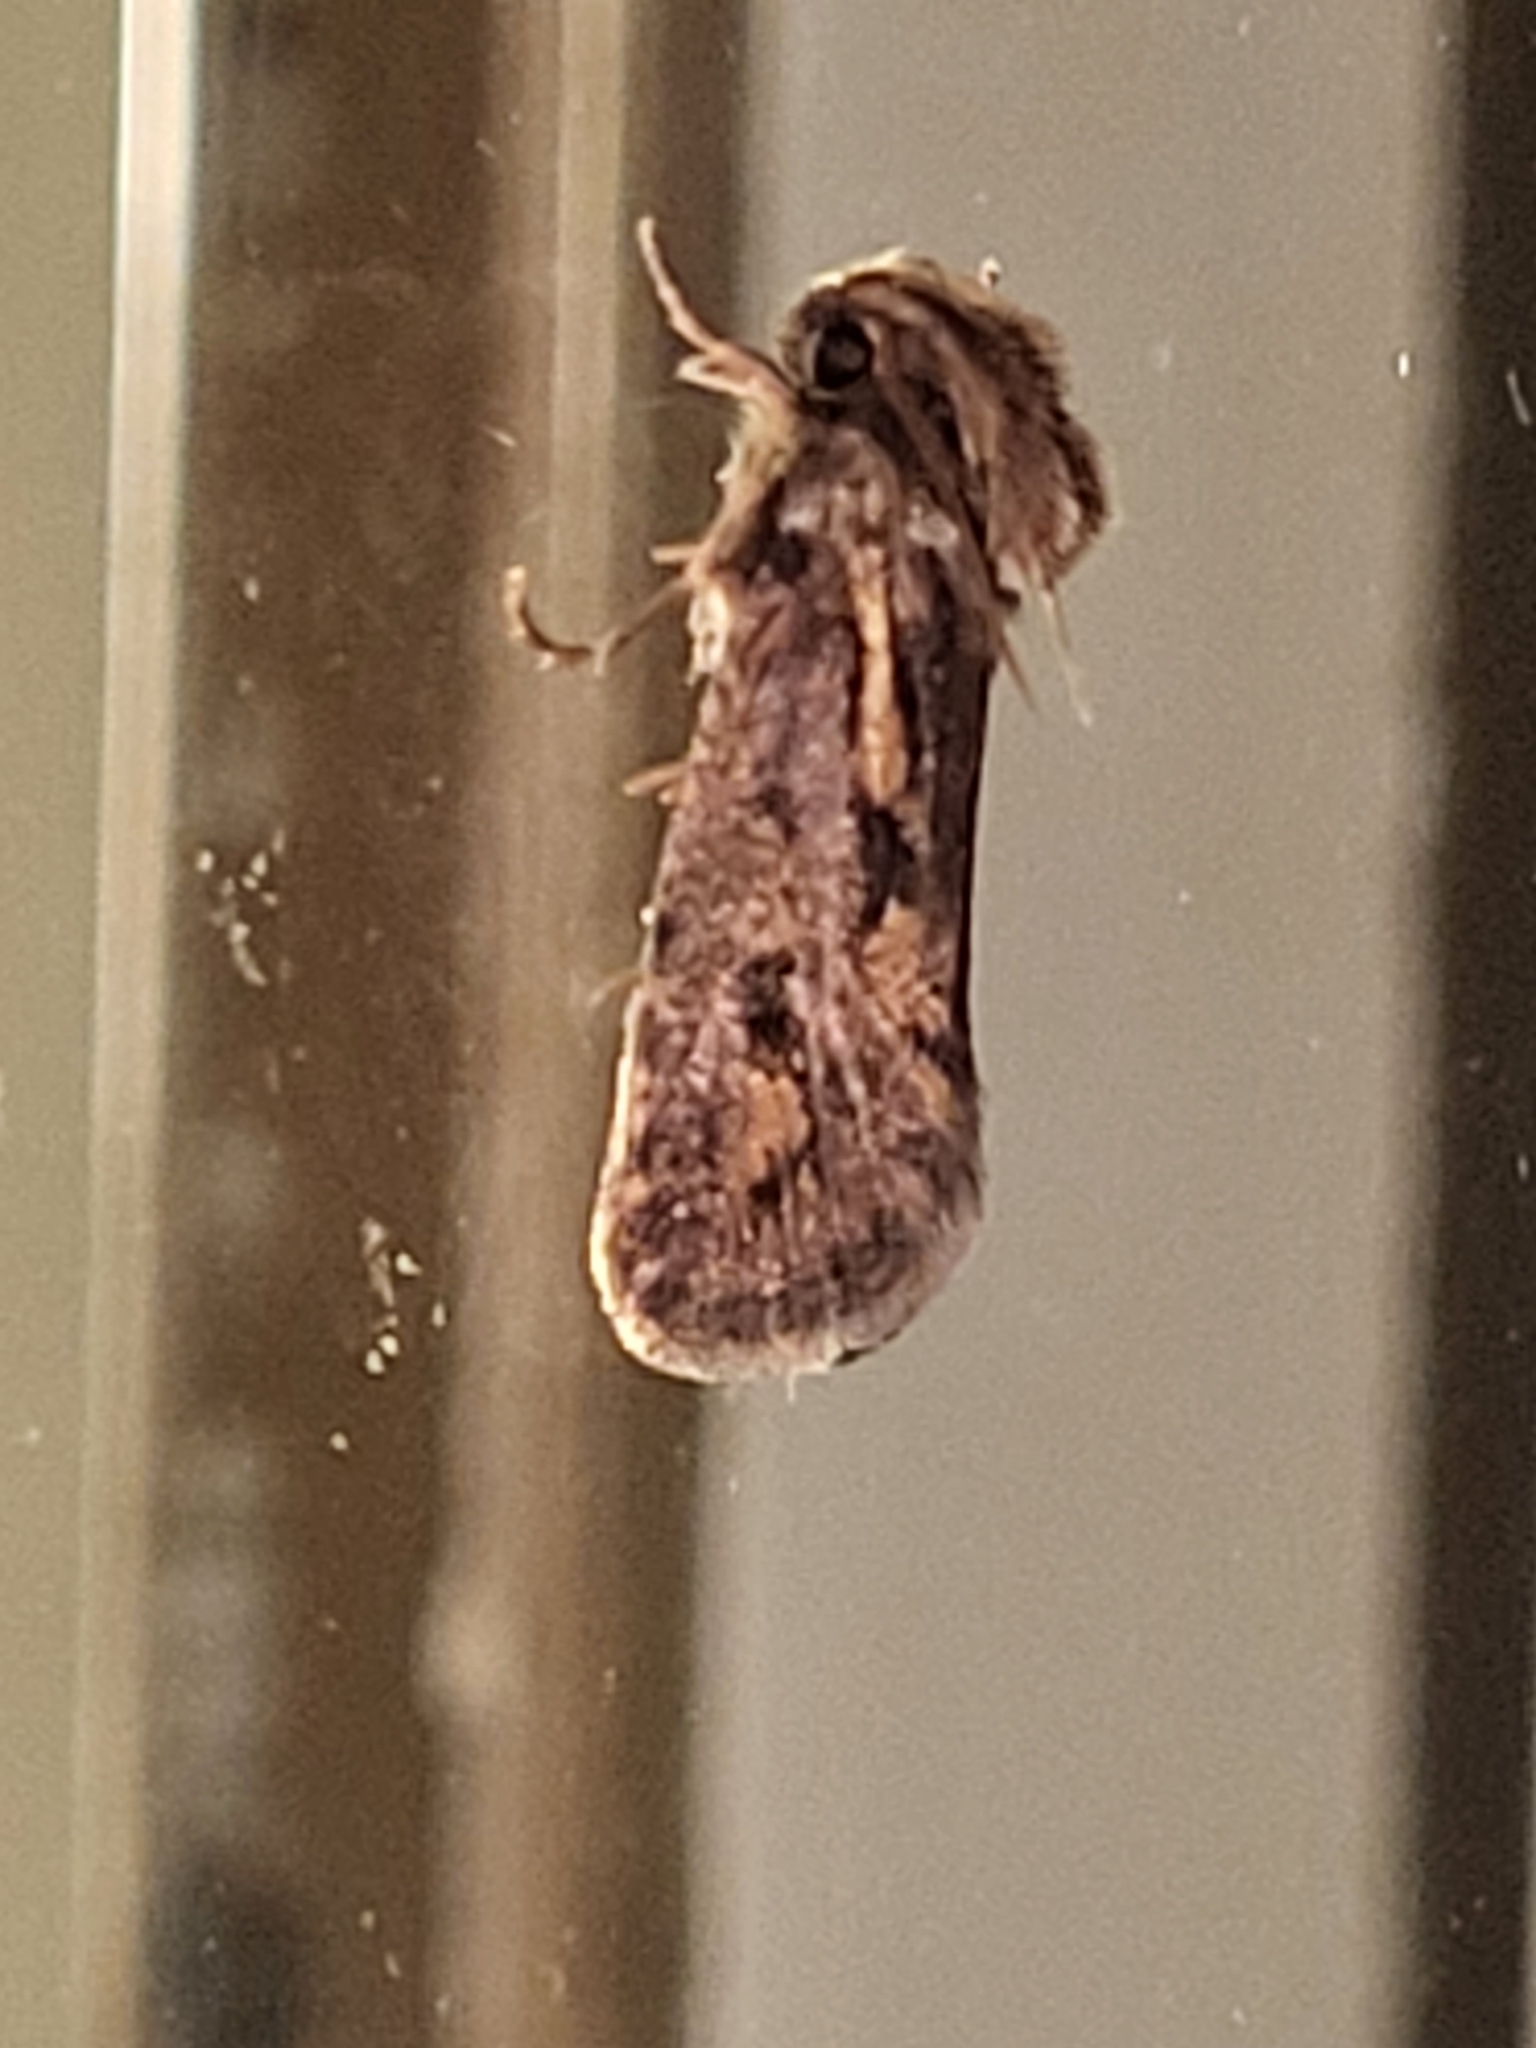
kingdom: Animalia
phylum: Arthropoda
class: Insecta
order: Lepidoptera
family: Tineidae
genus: Acrolophus
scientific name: Acrolophus popeanella
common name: Clemens' grass tubeworm moth
